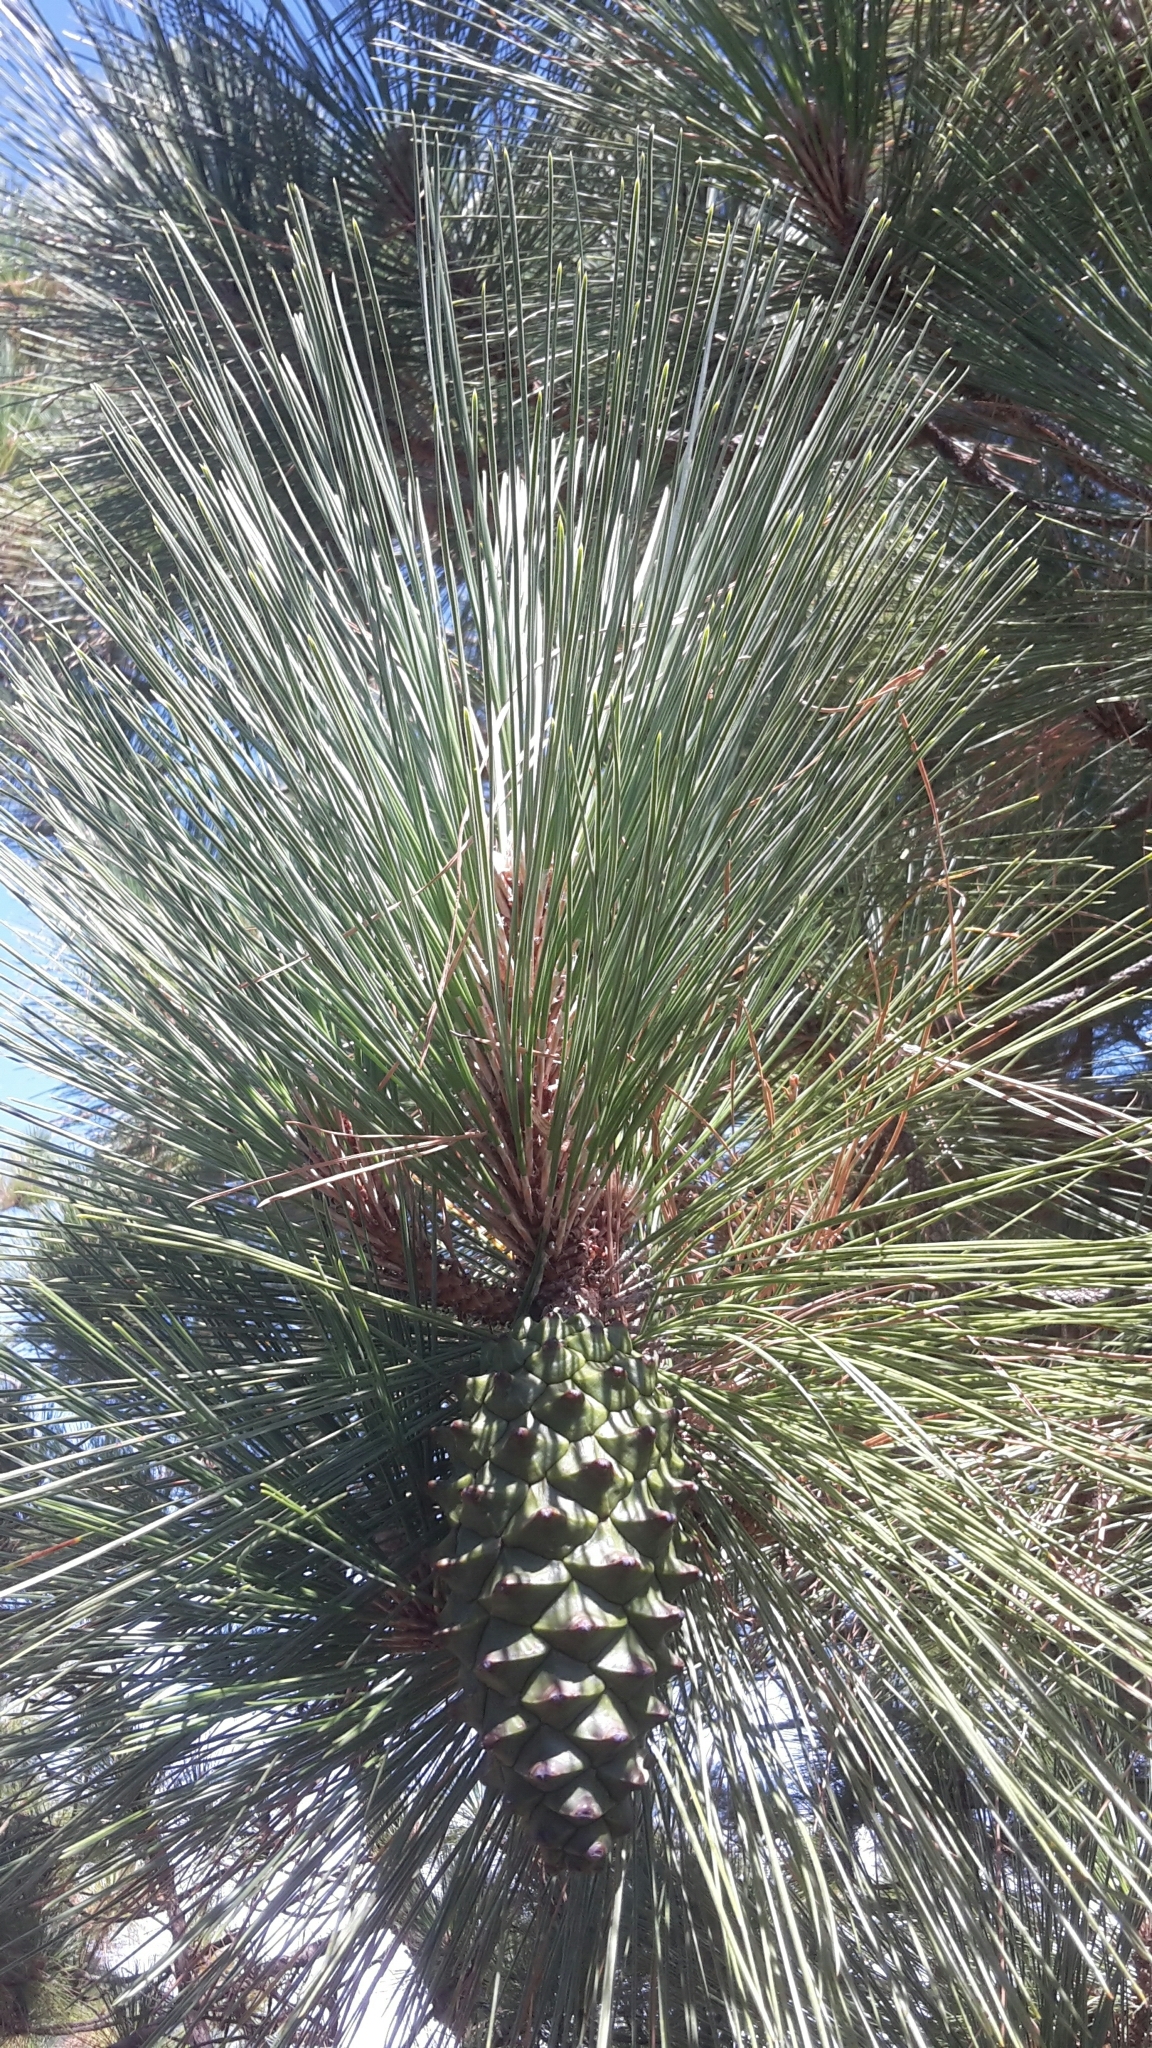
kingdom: Plantae
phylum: Tracheophyta
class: Pinopsida
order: Pinales
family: Pinaceae
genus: Pinus
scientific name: Pinus canariensis
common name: Canary islands pine
